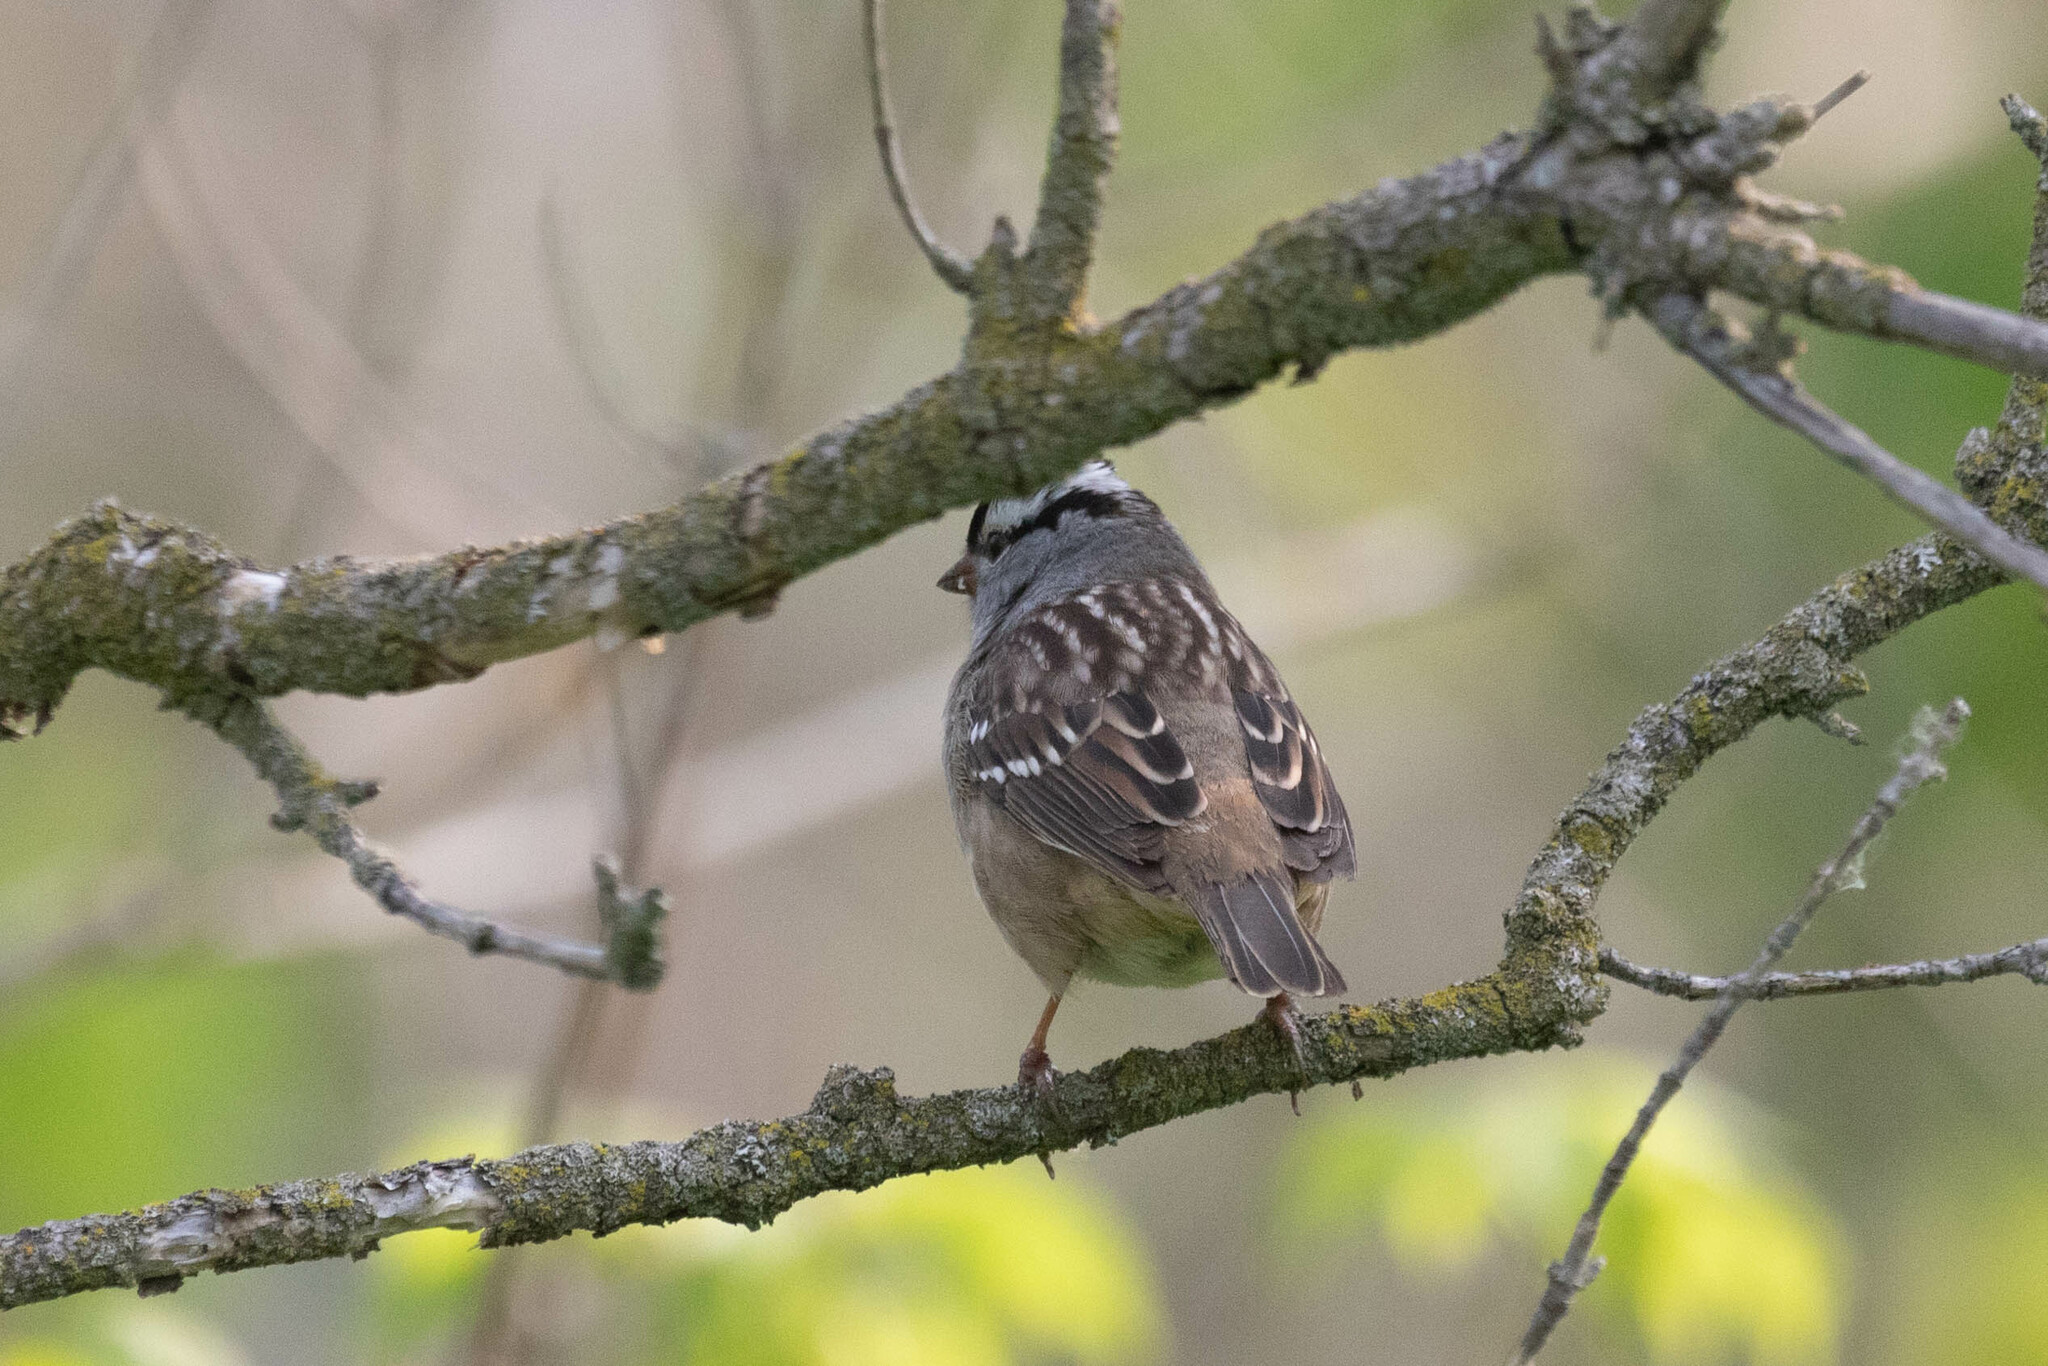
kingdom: Animalia
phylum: Chordata
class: Aves
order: Passeriformes
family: Passerellidae
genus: Zonotrichia
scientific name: Zonotrichia leucophrys
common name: White-crowned sparrow
